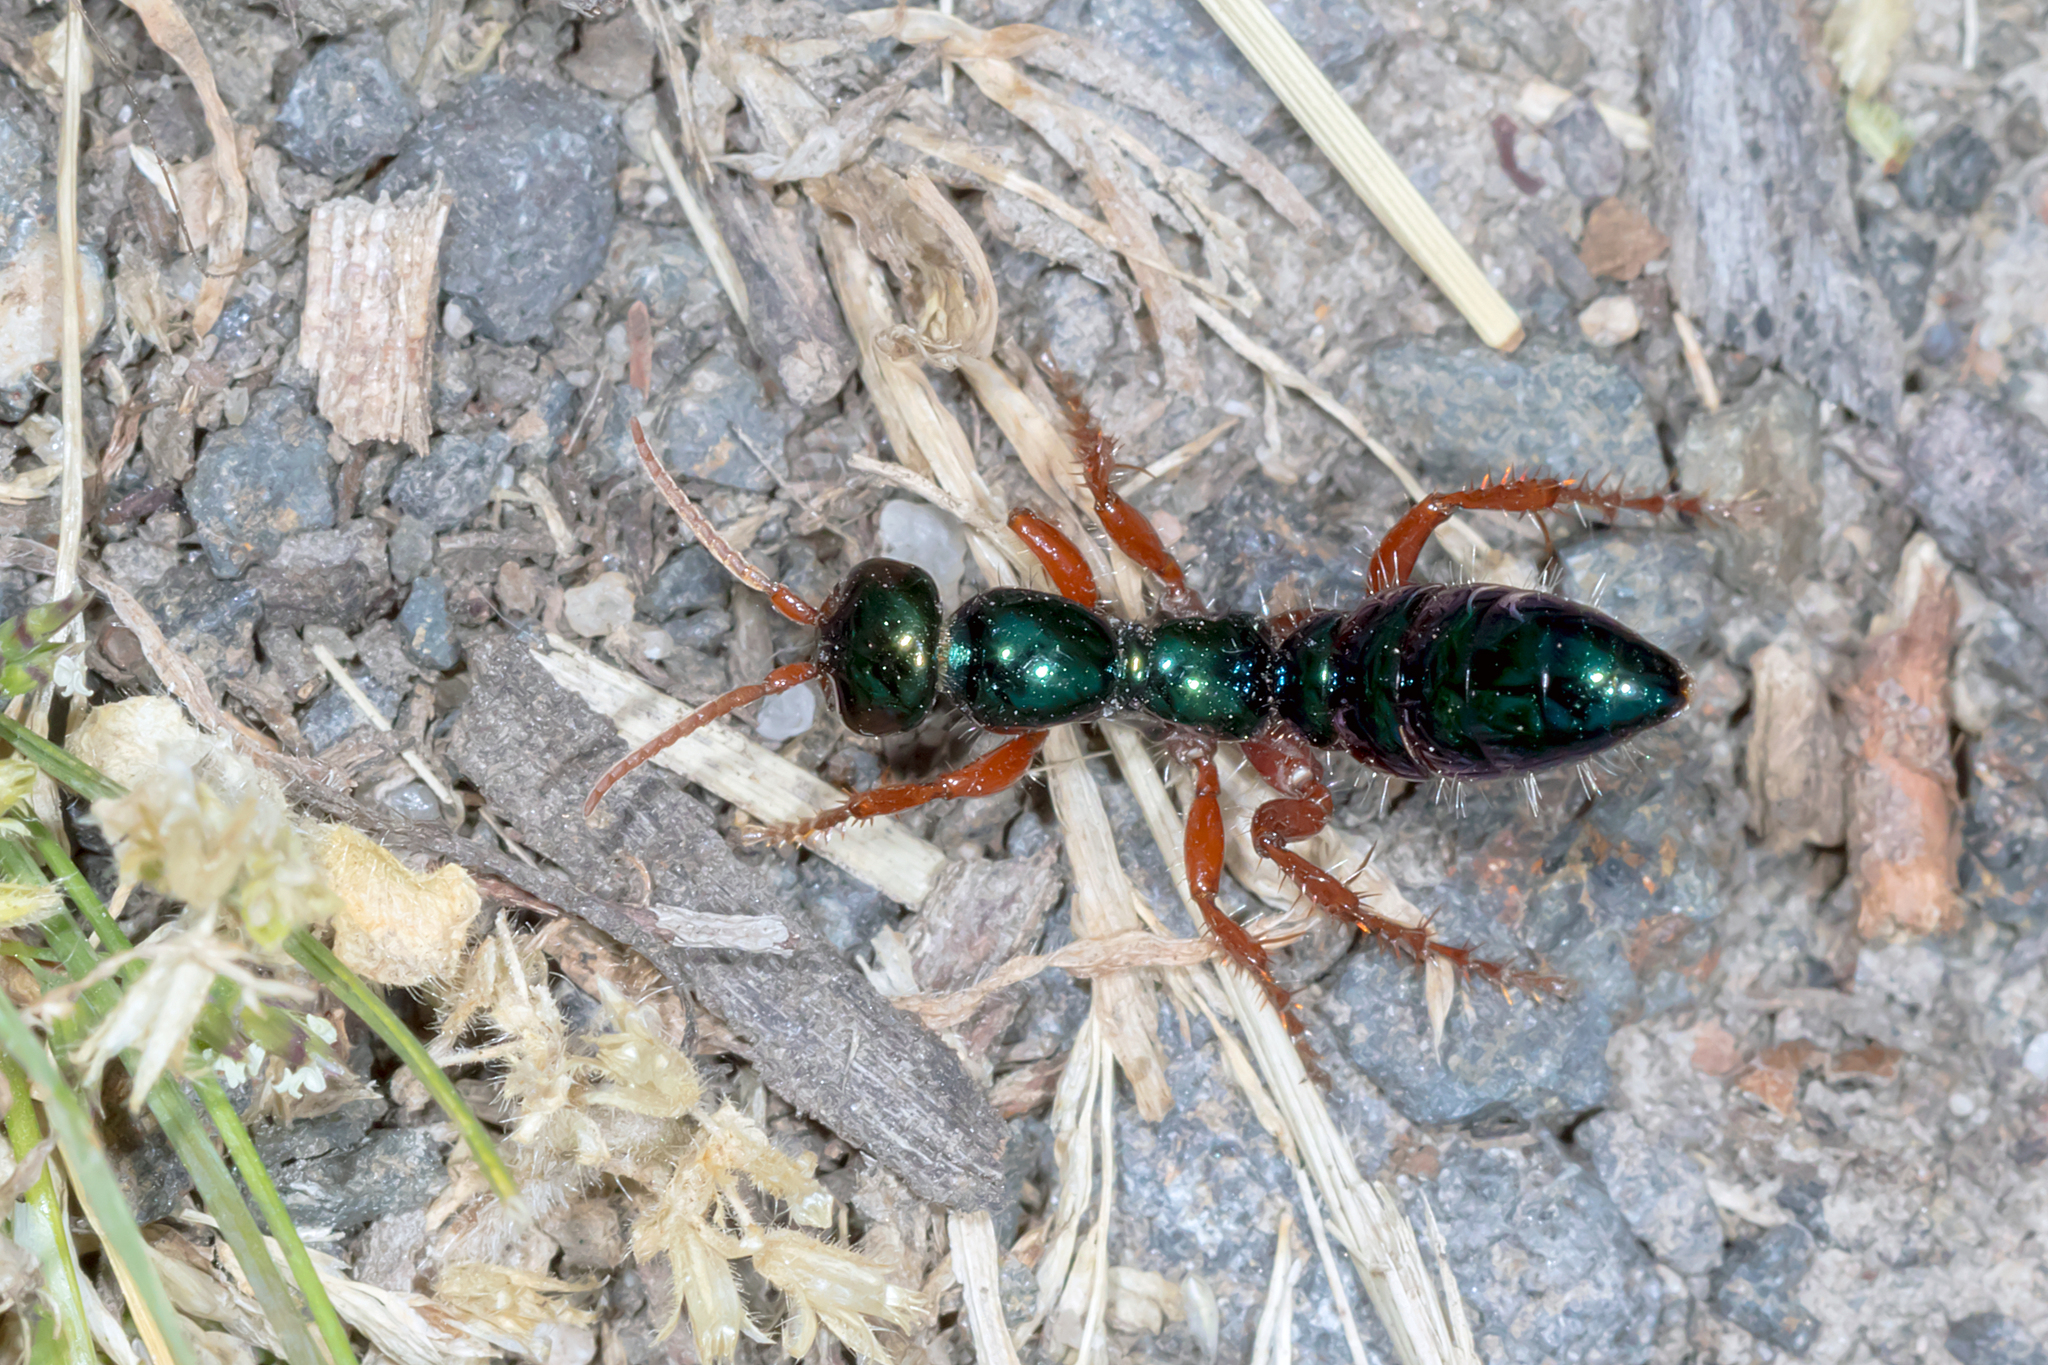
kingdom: Animalia
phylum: Arthropoda
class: Insecta
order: Hymenoptera
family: Tiphiidae
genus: Diamma
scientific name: Diamma
